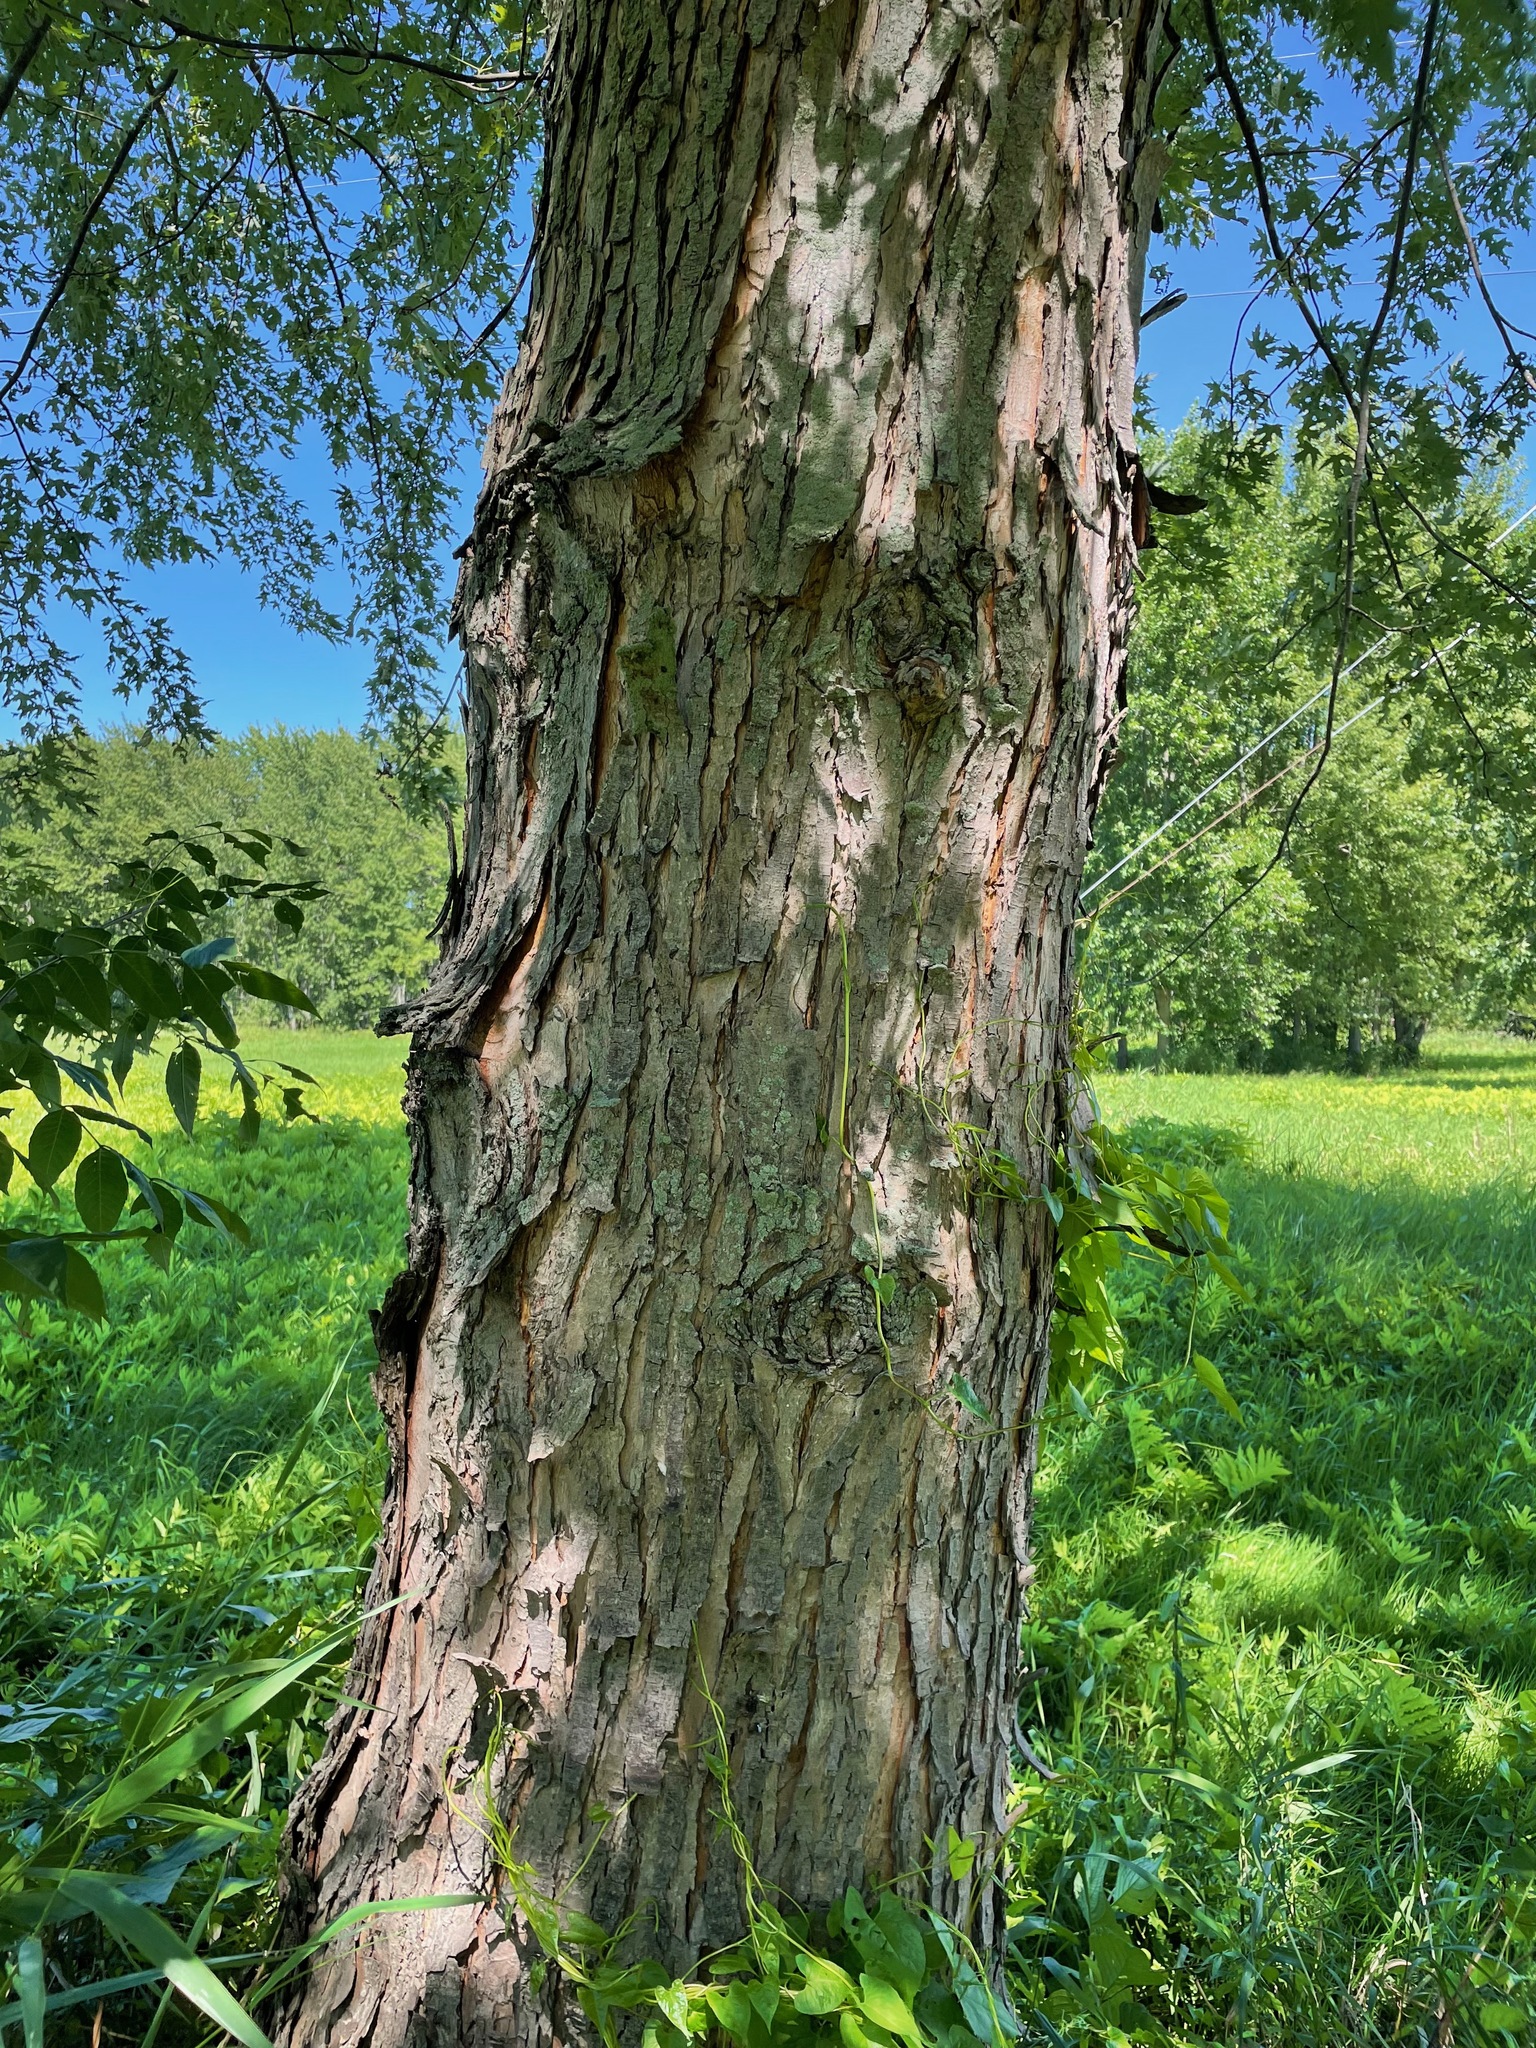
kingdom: Plantae
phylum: Tracheophyta
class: Magnoliopsida
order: Sapindales
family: Sapindaceae
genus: Acer
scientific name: Acer saccharinum
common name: Silver maple
